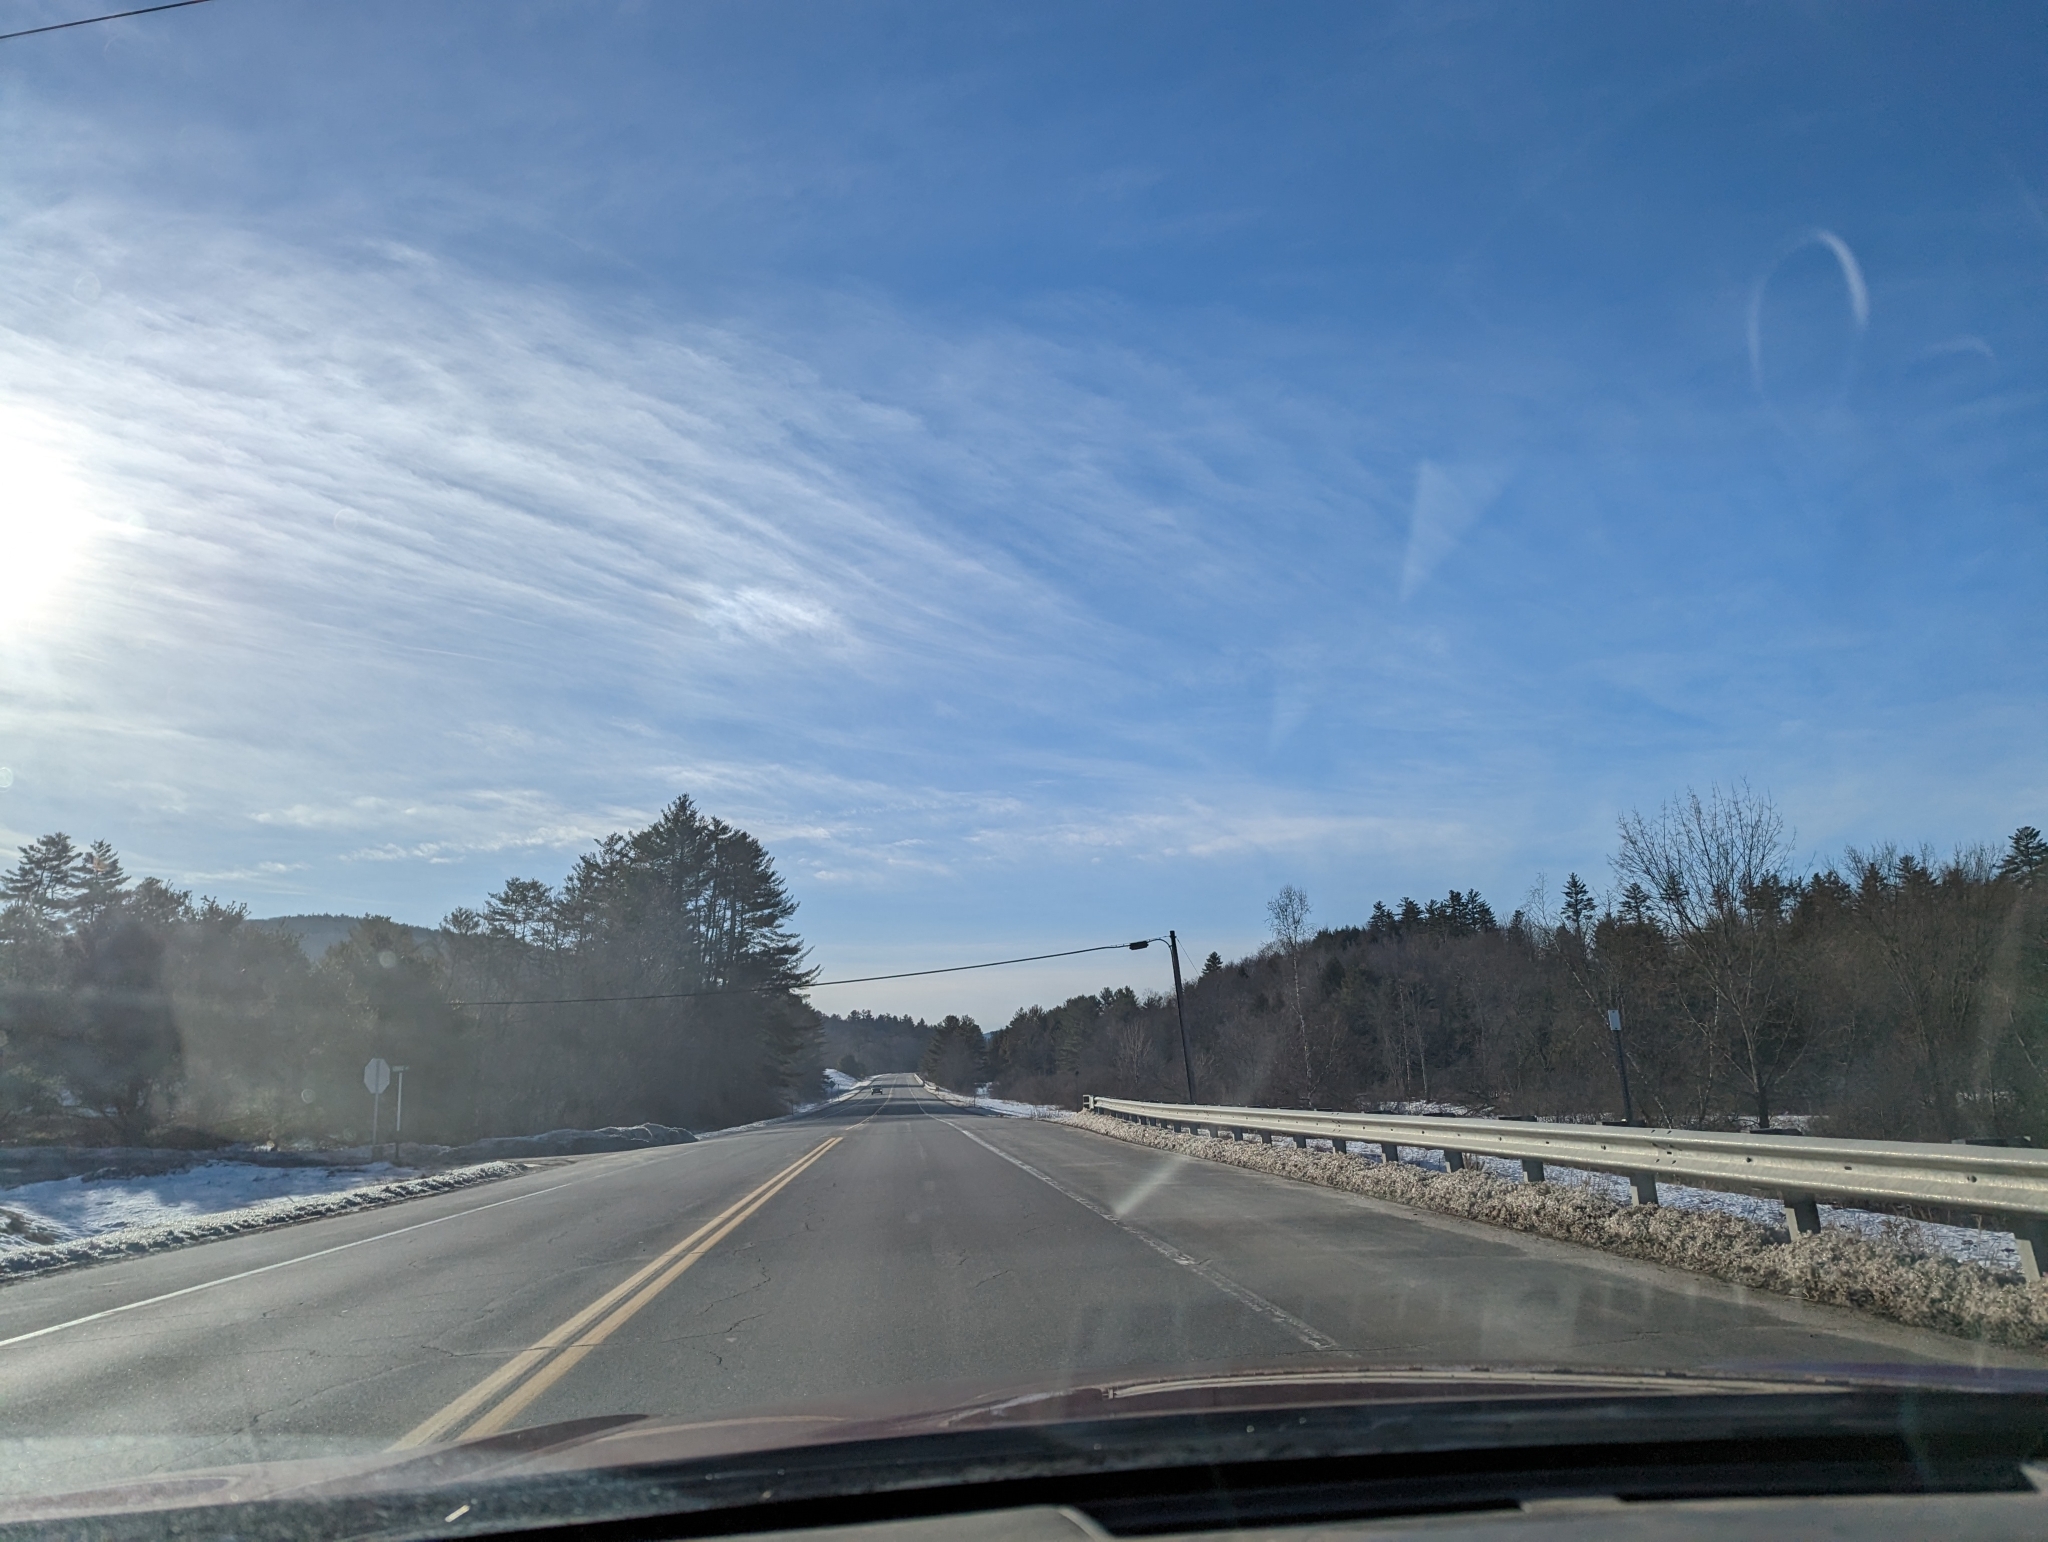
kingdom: Plantae
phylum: Tracheophyta
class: Pinopsida
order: Pinales
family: Pinaceae
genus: Pinus
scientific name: Pinus strobus
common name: Weymouth pine
